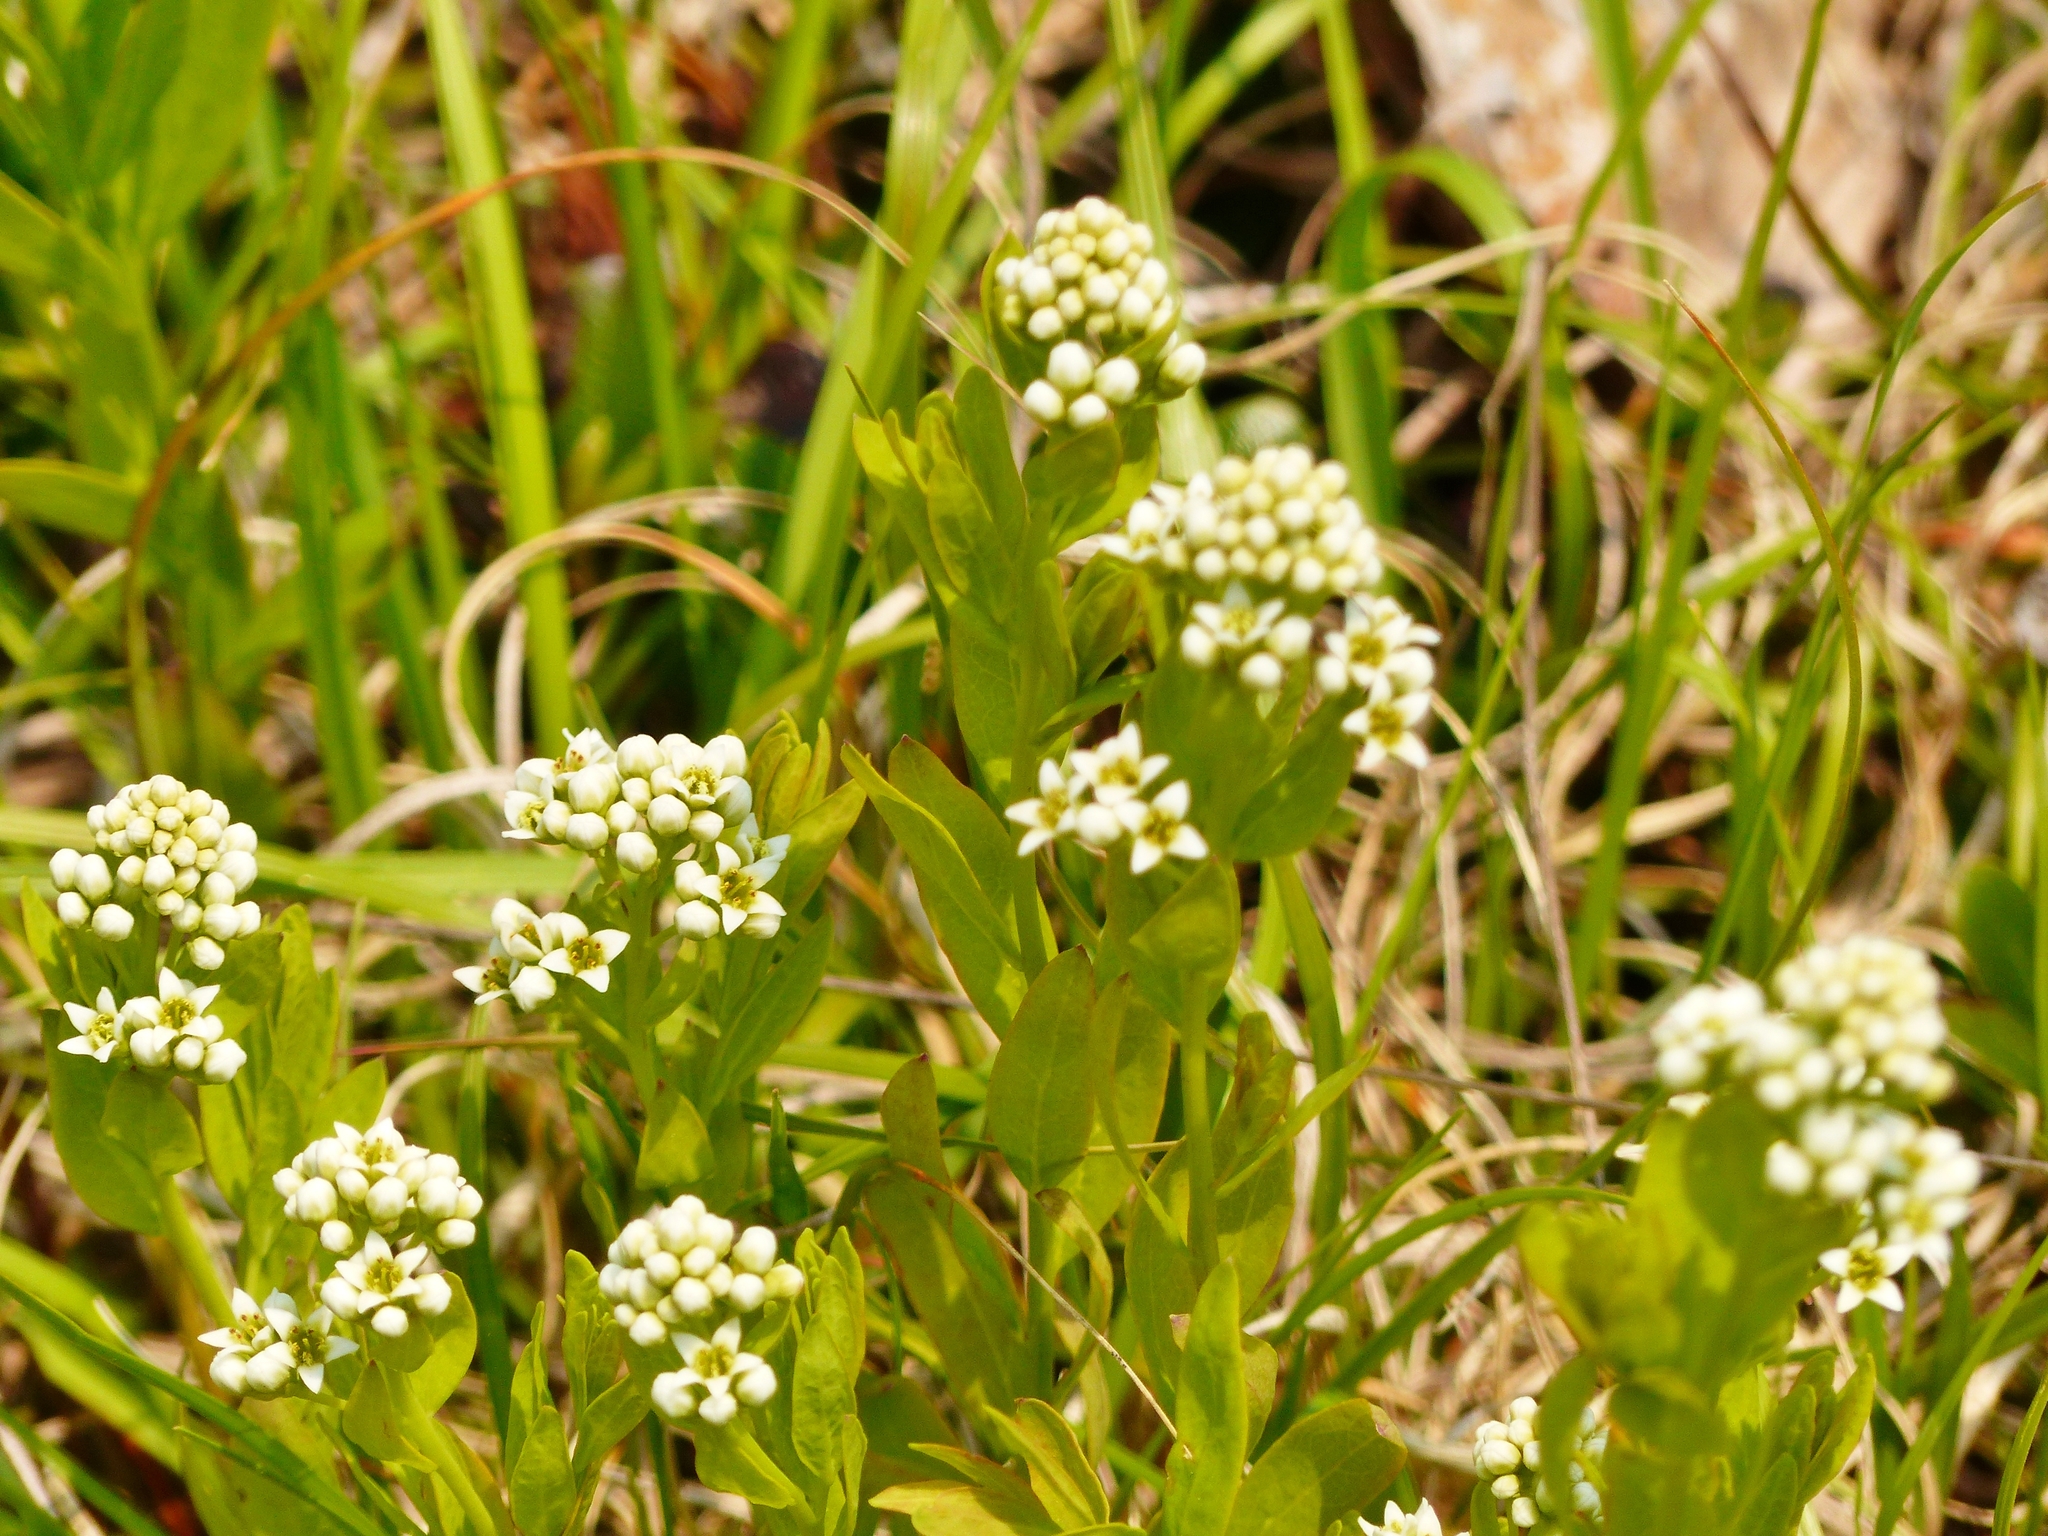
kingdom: Plantae
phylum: Tracheophyta
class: Magnoliopsida
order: Santalales
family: Comandraceae
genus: Comandra
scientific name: Comandra umbellata
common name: Bastard toadflax
